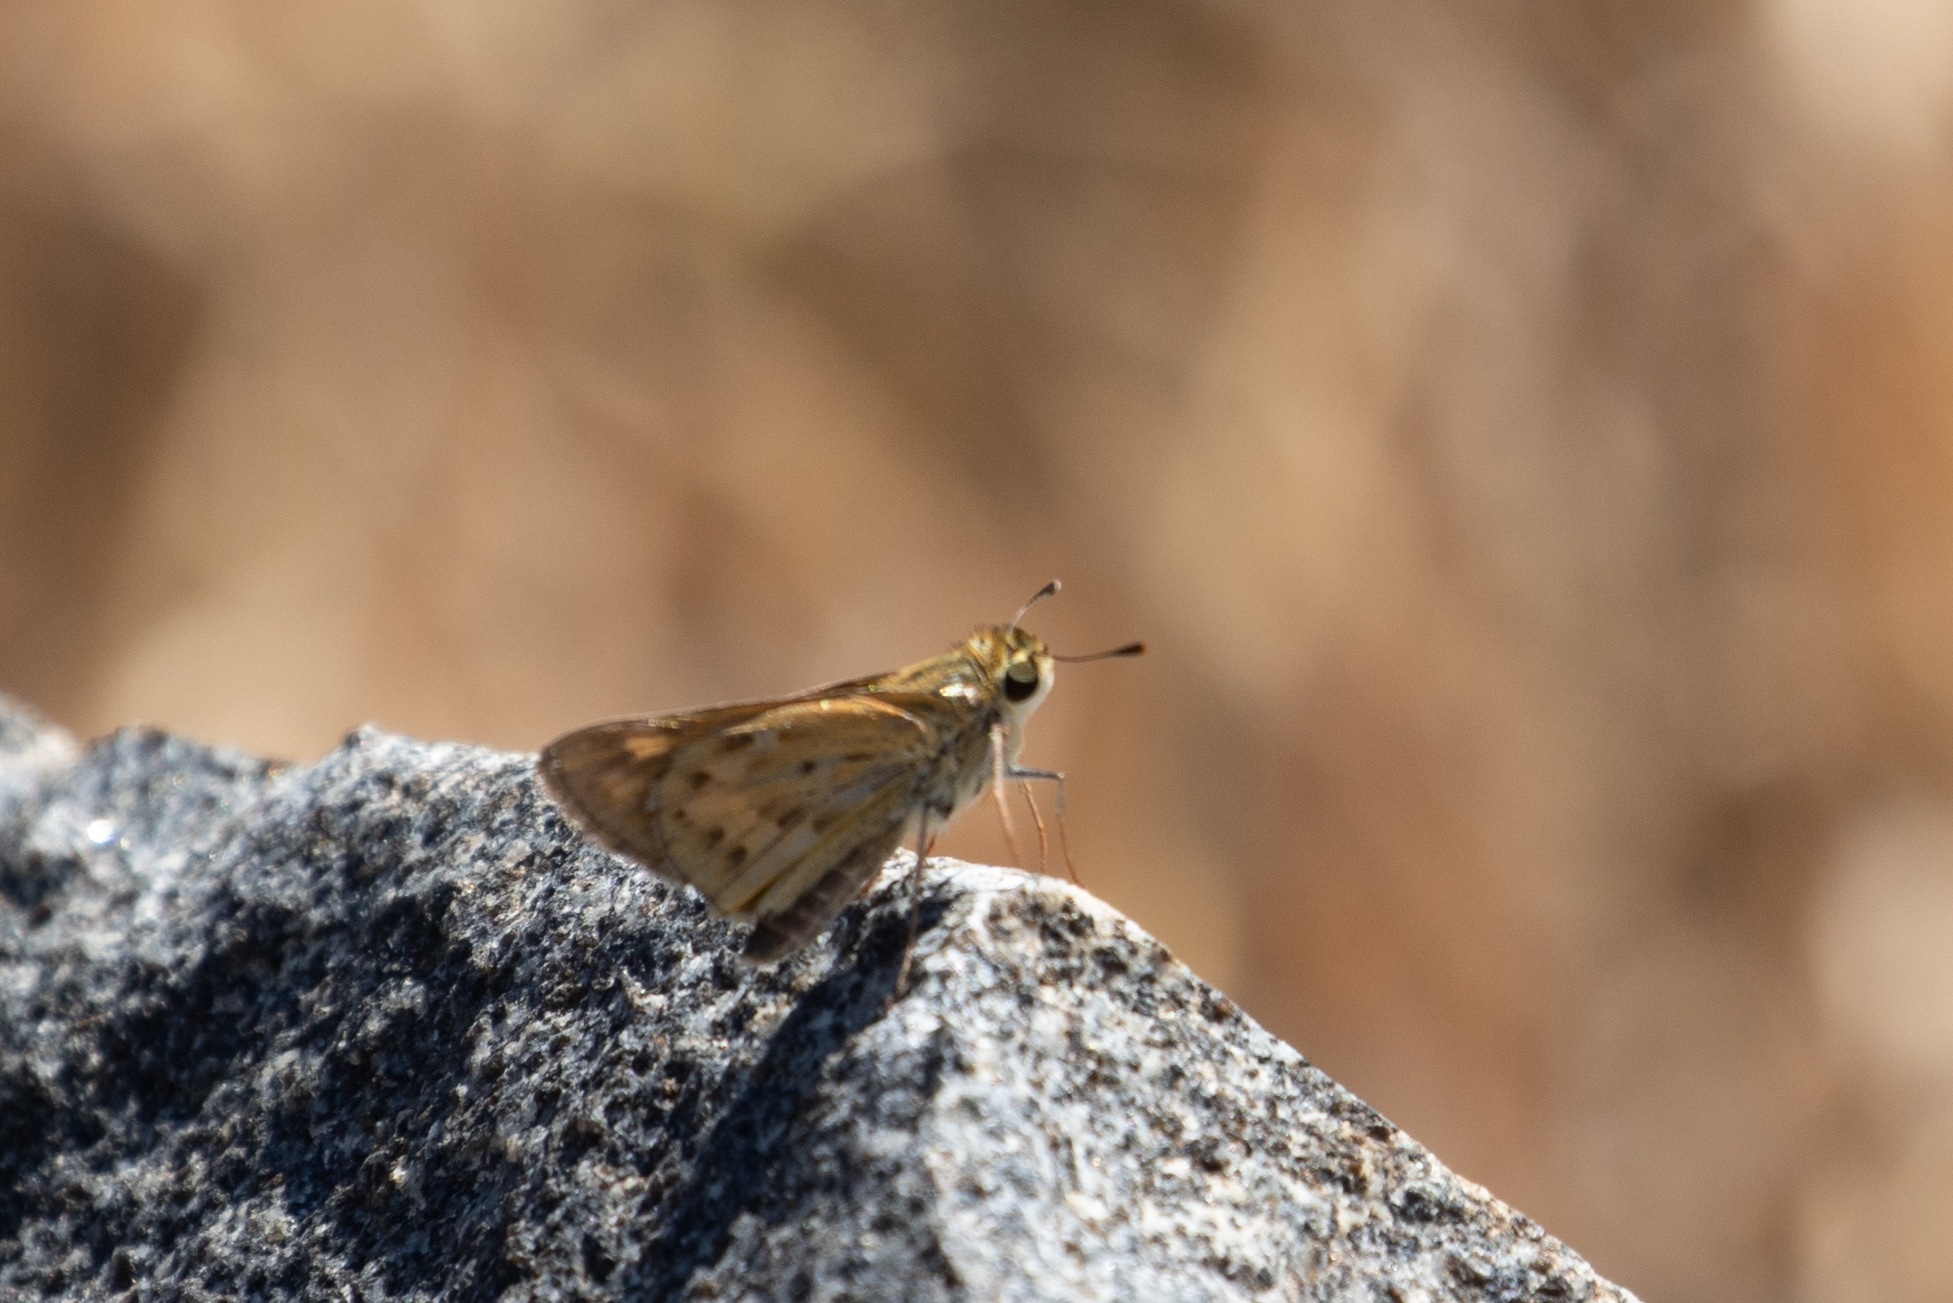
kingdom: Animalia
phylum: Arthropoda
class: Insecta
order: Lepidoptera
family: Hesperiidae
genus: Hylephila
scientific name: Hylephila phyleus
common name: Fiery skipper
